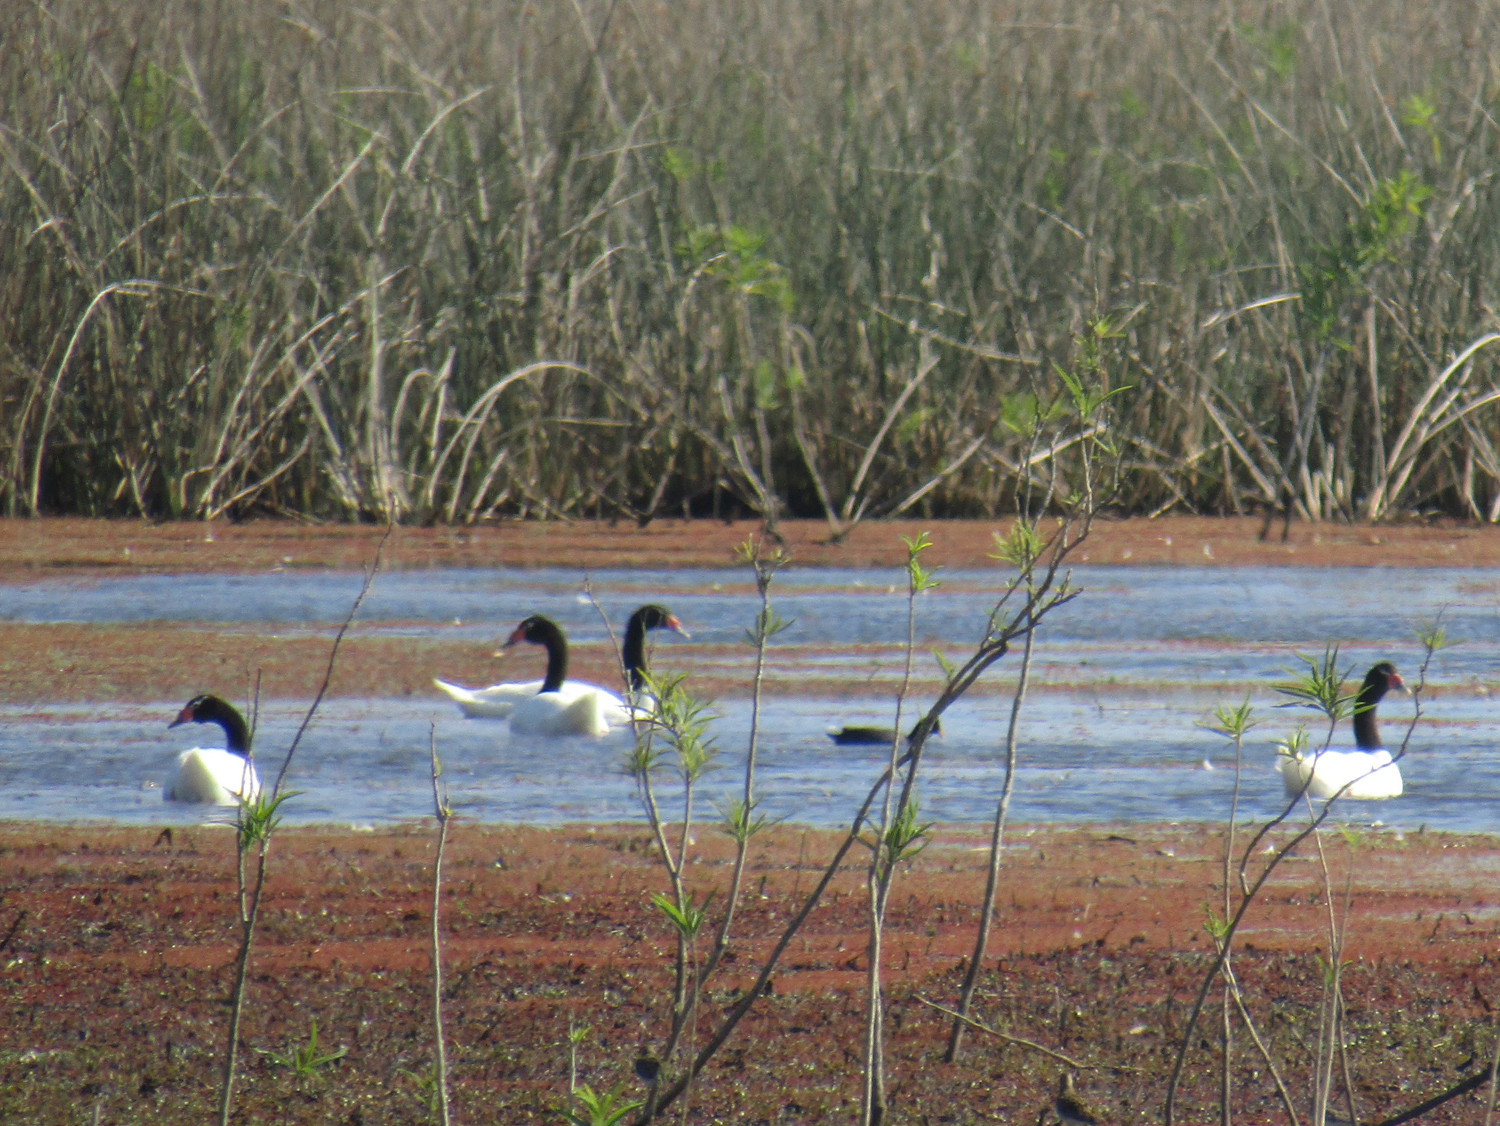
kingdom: Animalia
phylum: Chordata
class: Aves
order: Anseriformes
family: Anatidae
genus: Cygnus
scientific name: Cygnus melancoryphus
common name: Black-necked swan
